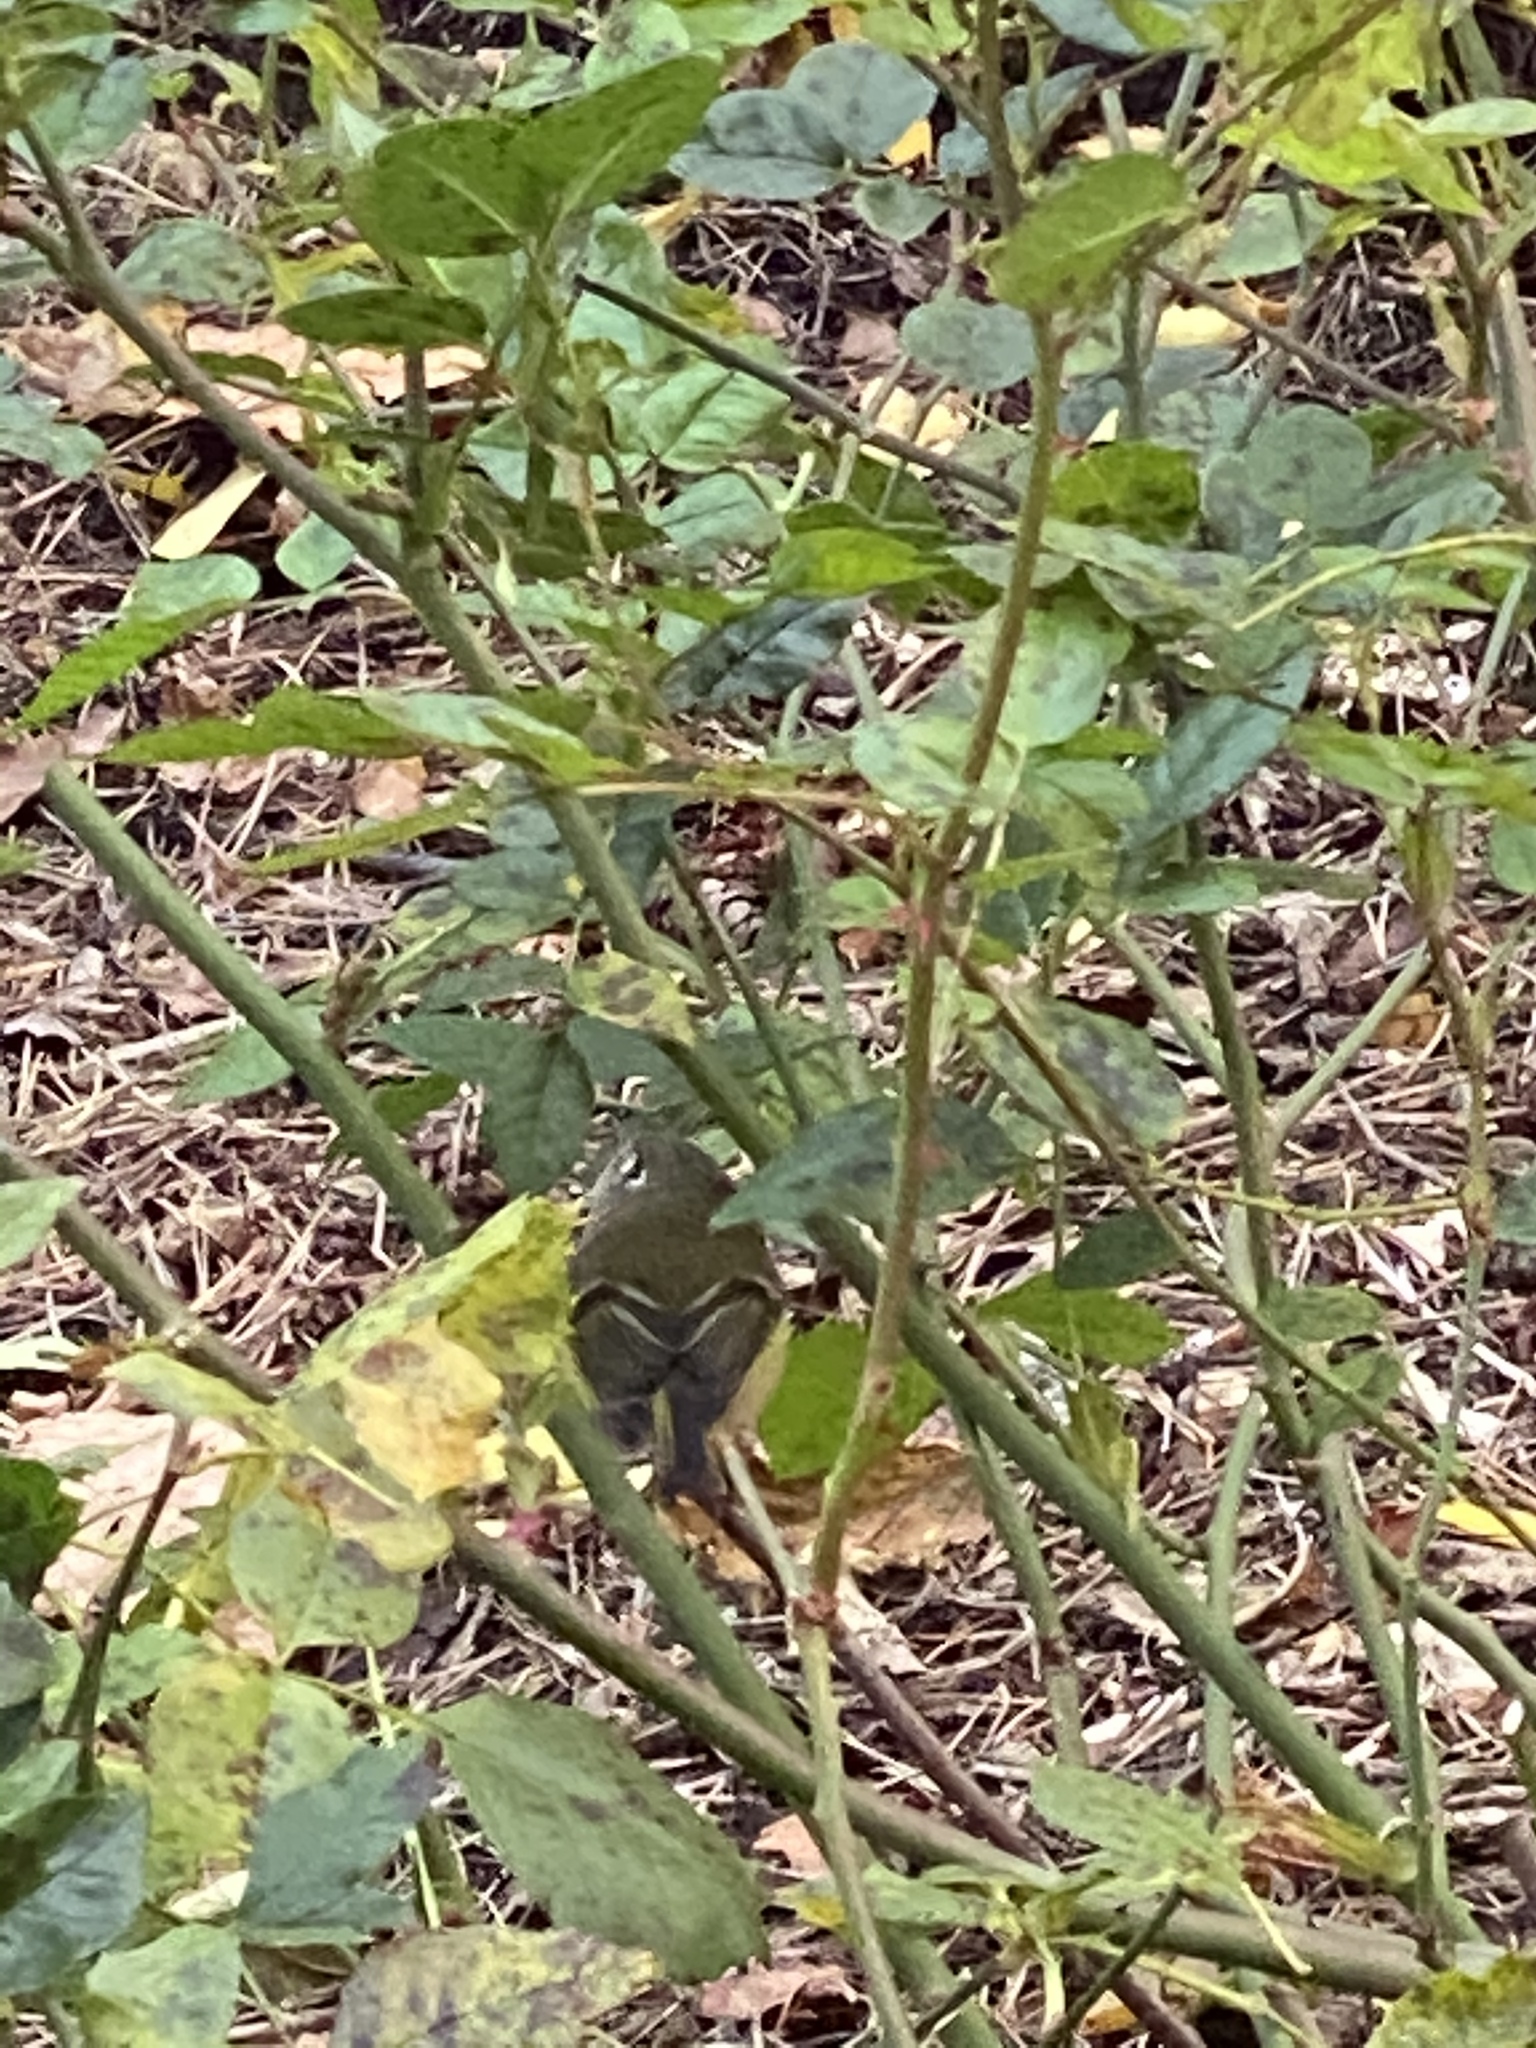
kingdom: Animalia
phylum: Chordata
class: Aves
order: Passeriformes
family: Regulidae
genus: Regulus
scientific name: Regulus calendula
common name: Ruby-crowned kinglet
